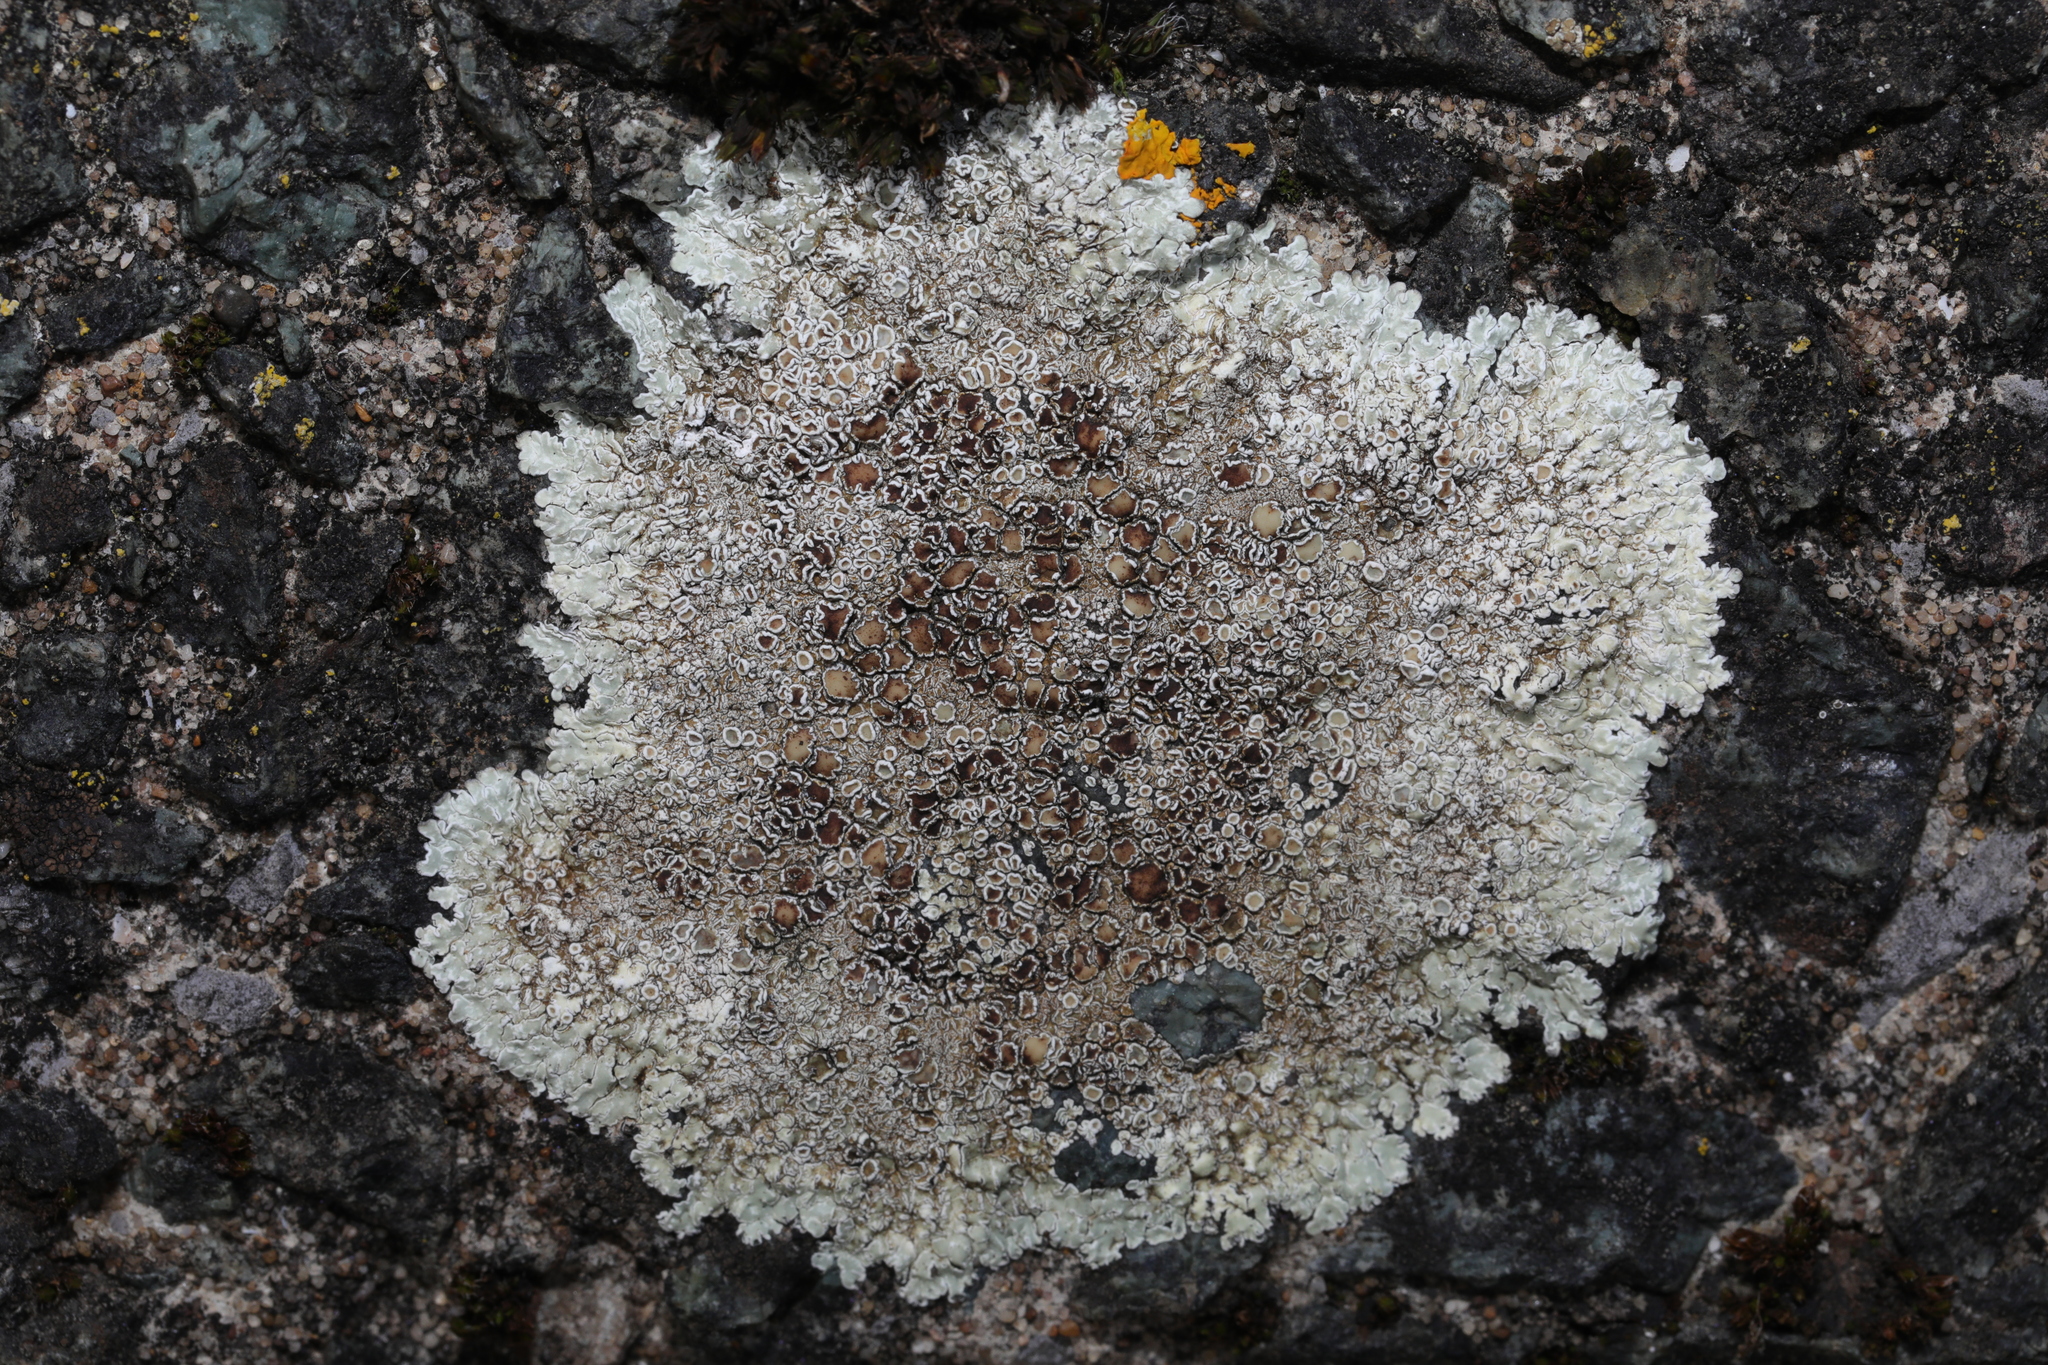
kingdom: Fungi
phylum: Ascomycota
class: Lecanoromycetes
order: Lecanorales
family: Lecanoraceae
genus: Protoparmeliopsis
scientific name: Protoparmeliopsis muralis
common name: Stonewall rim lichen
